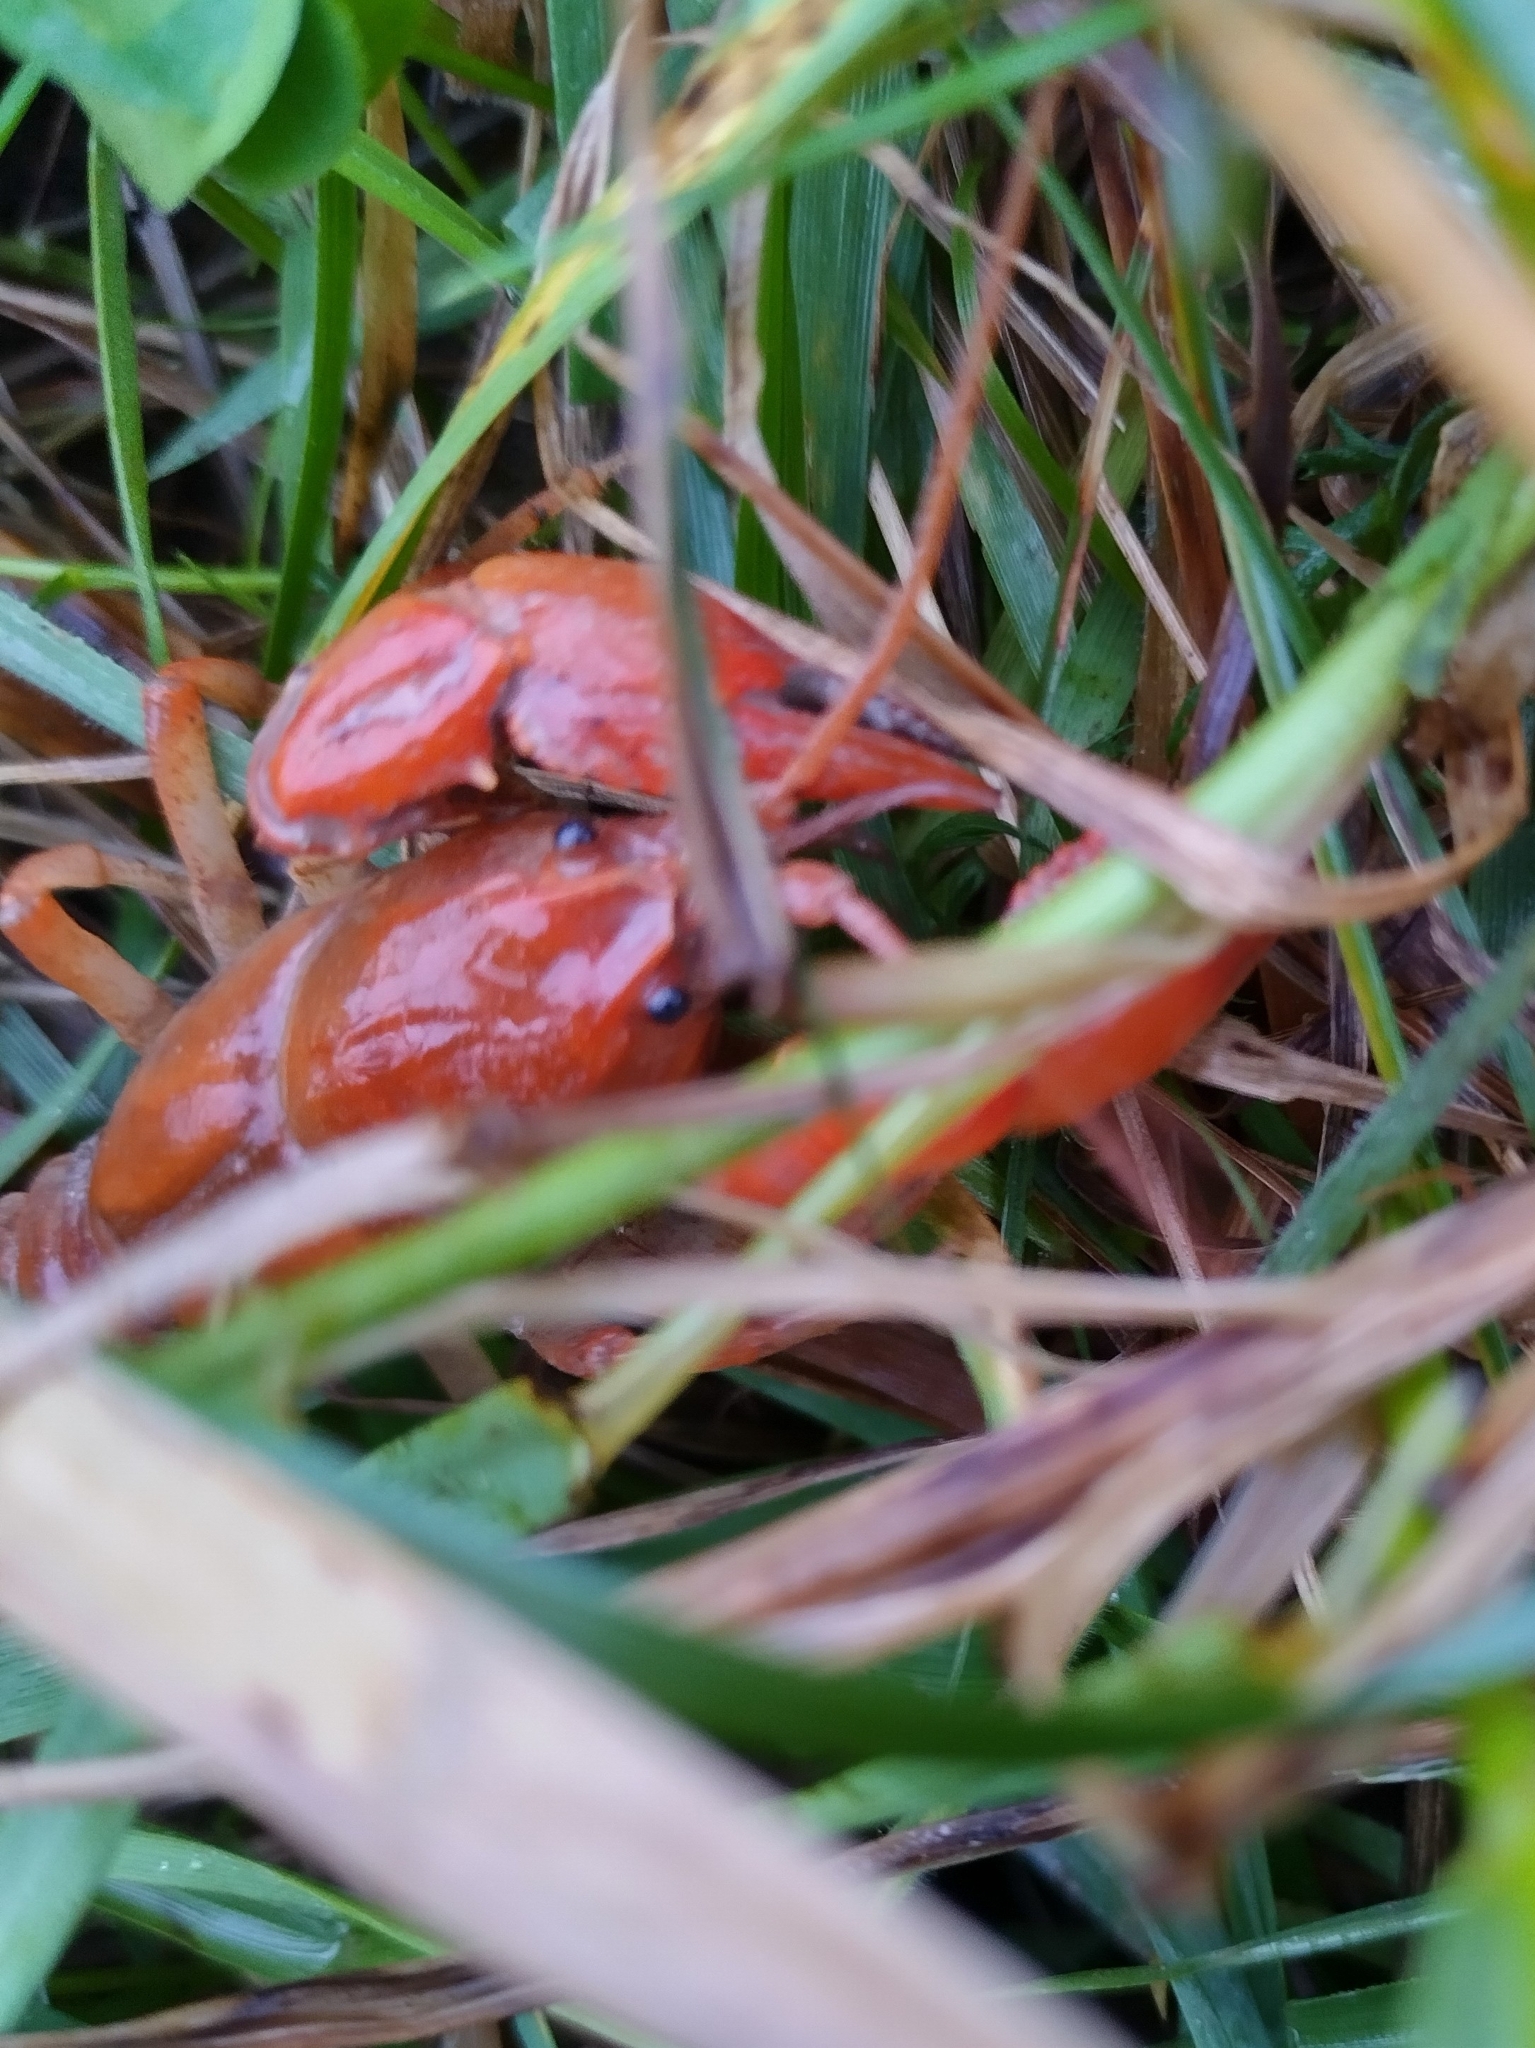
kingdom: Animalia
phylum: Arthropoda
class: Malacostraca
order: Decapoda
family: Cambaridae
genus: Cambarus
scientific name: Cambarus dubius
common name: Upland burrowing crayfish
